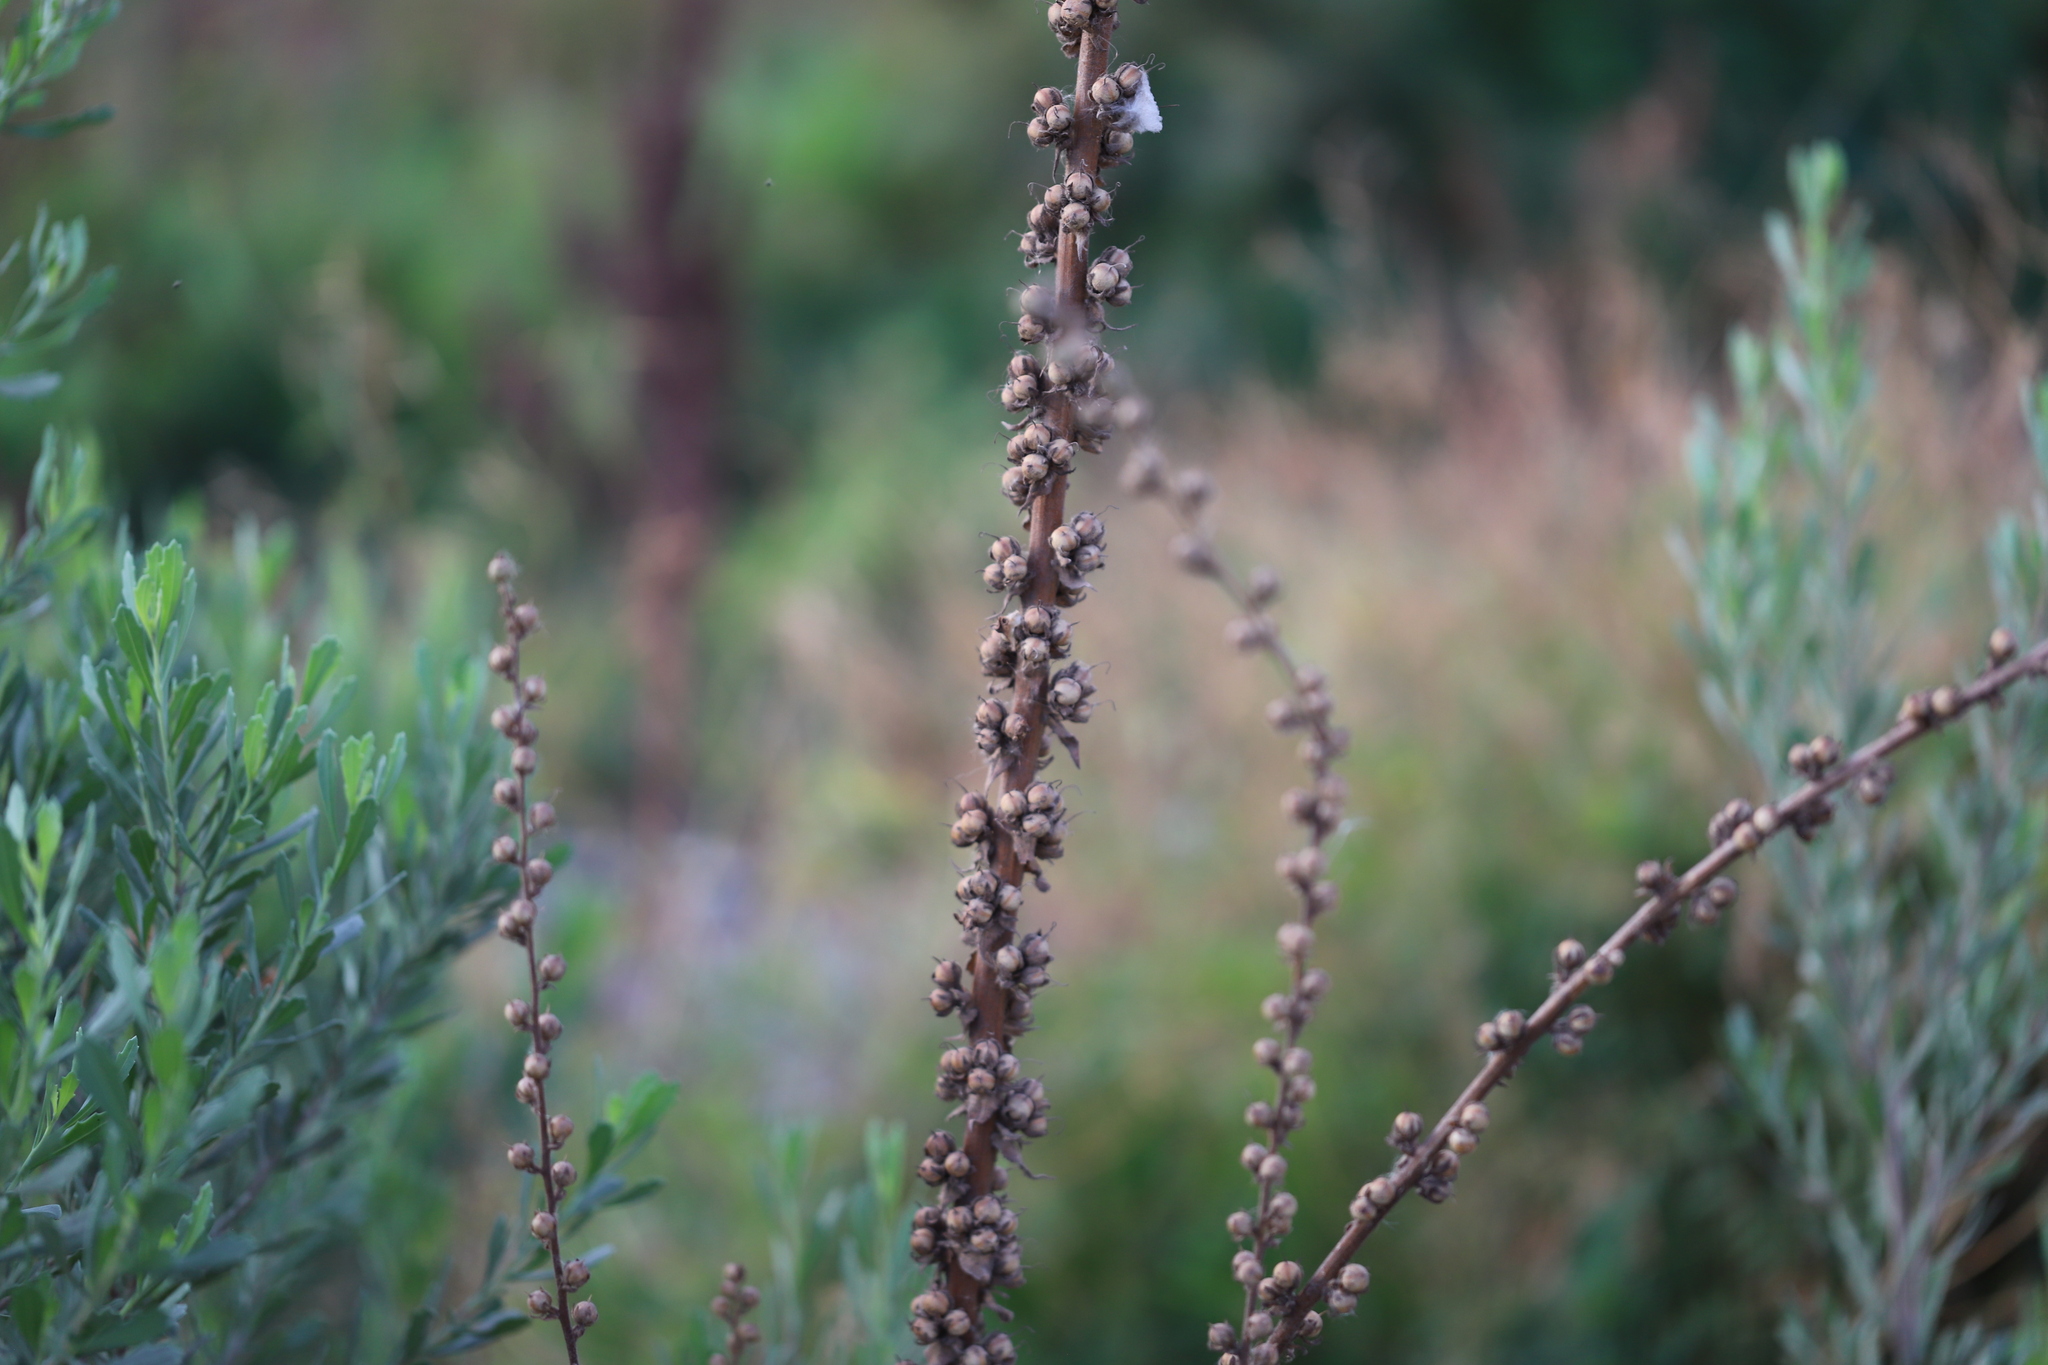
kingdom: Plantae
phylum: Tracheophyta
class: Magnoliopsida
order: Lamiales
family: Scrophulariaceae
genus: Verbascum
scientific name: Verbascum virgatum
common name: Twiggy mullein
